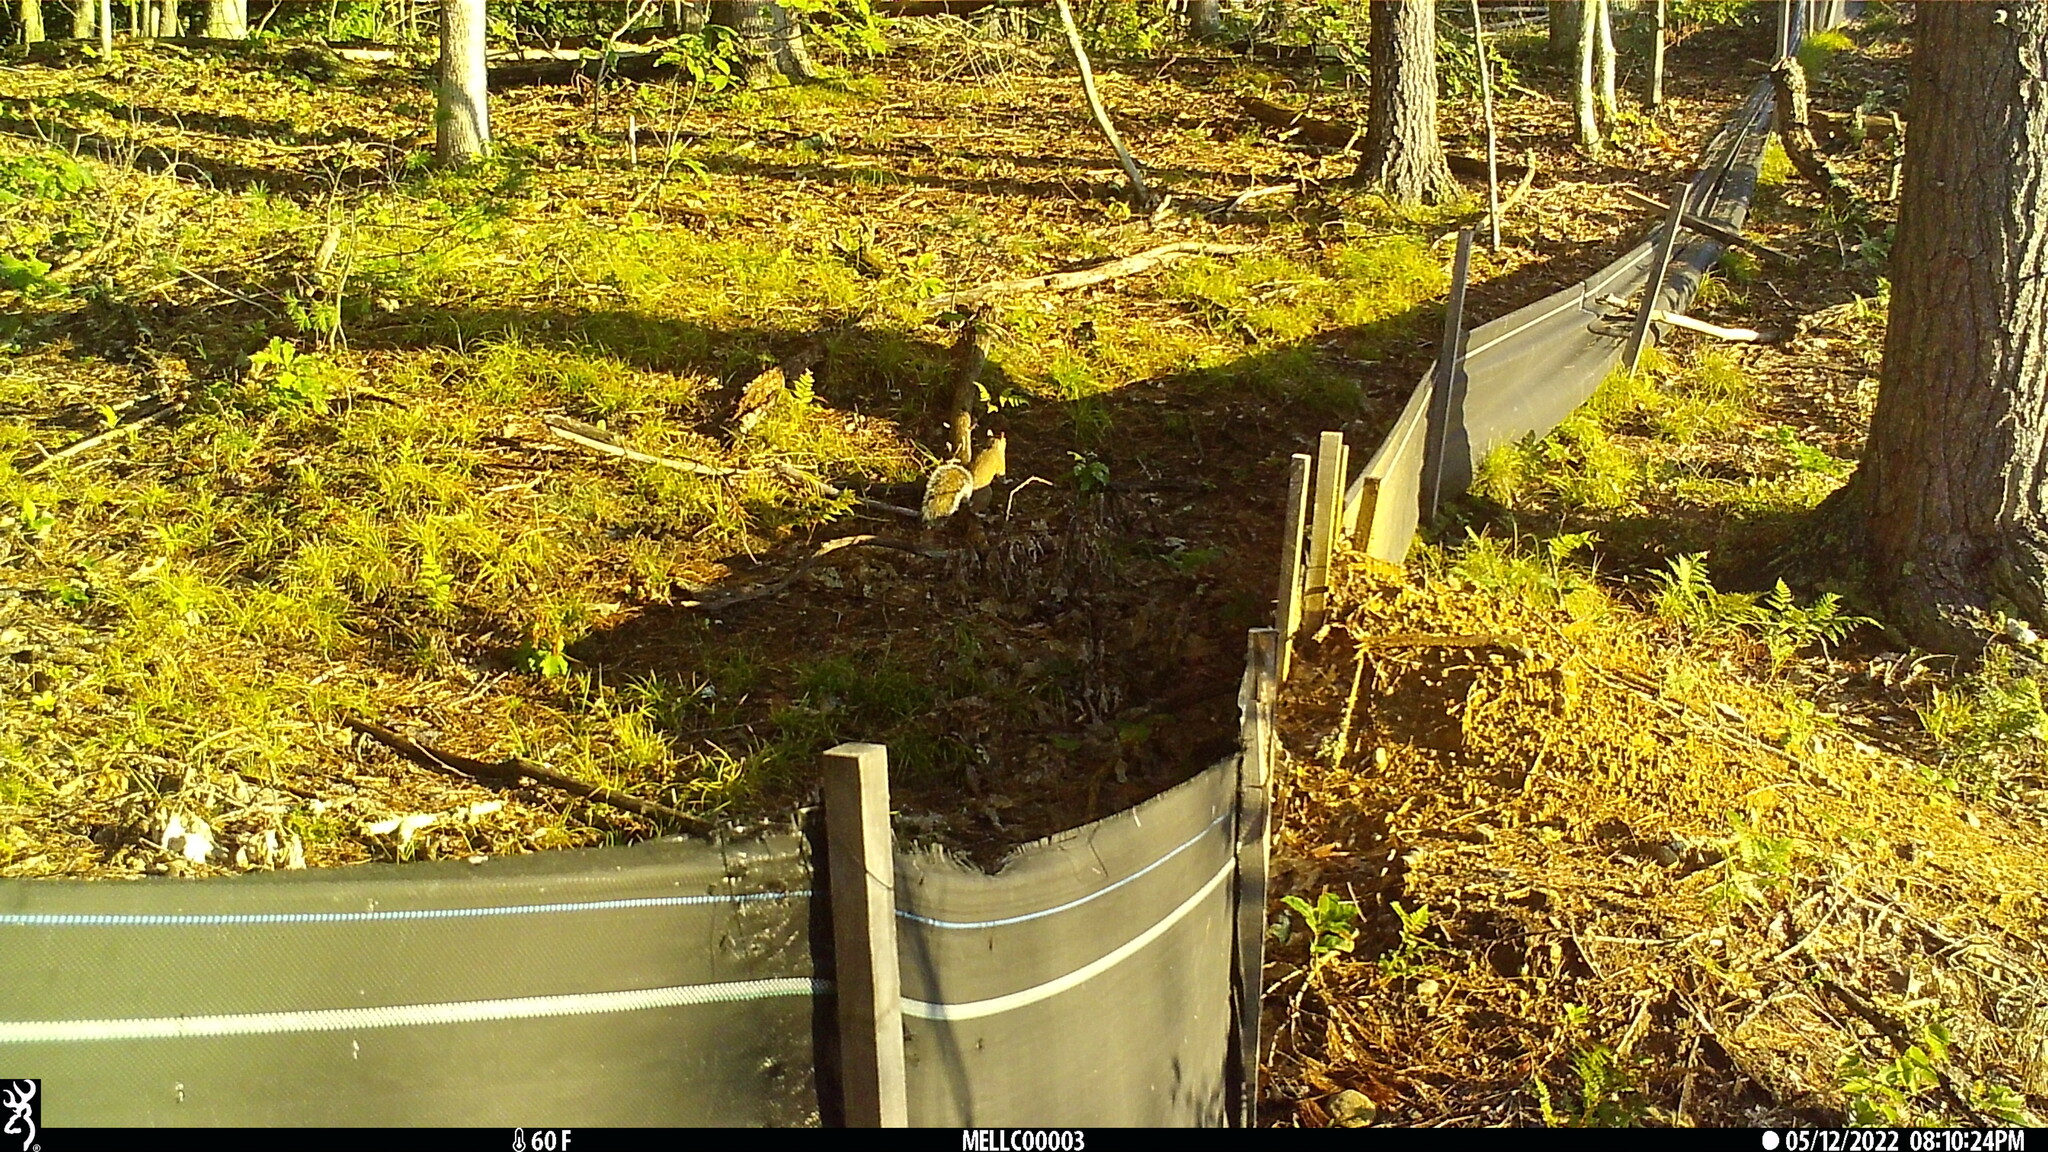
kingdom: Animalia
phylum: Chordata
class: Mammalia
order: Rodentia
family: Sciuridae
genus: Sciurus
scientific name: Sciurus carolinensis
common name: Eastern gray squirrel
